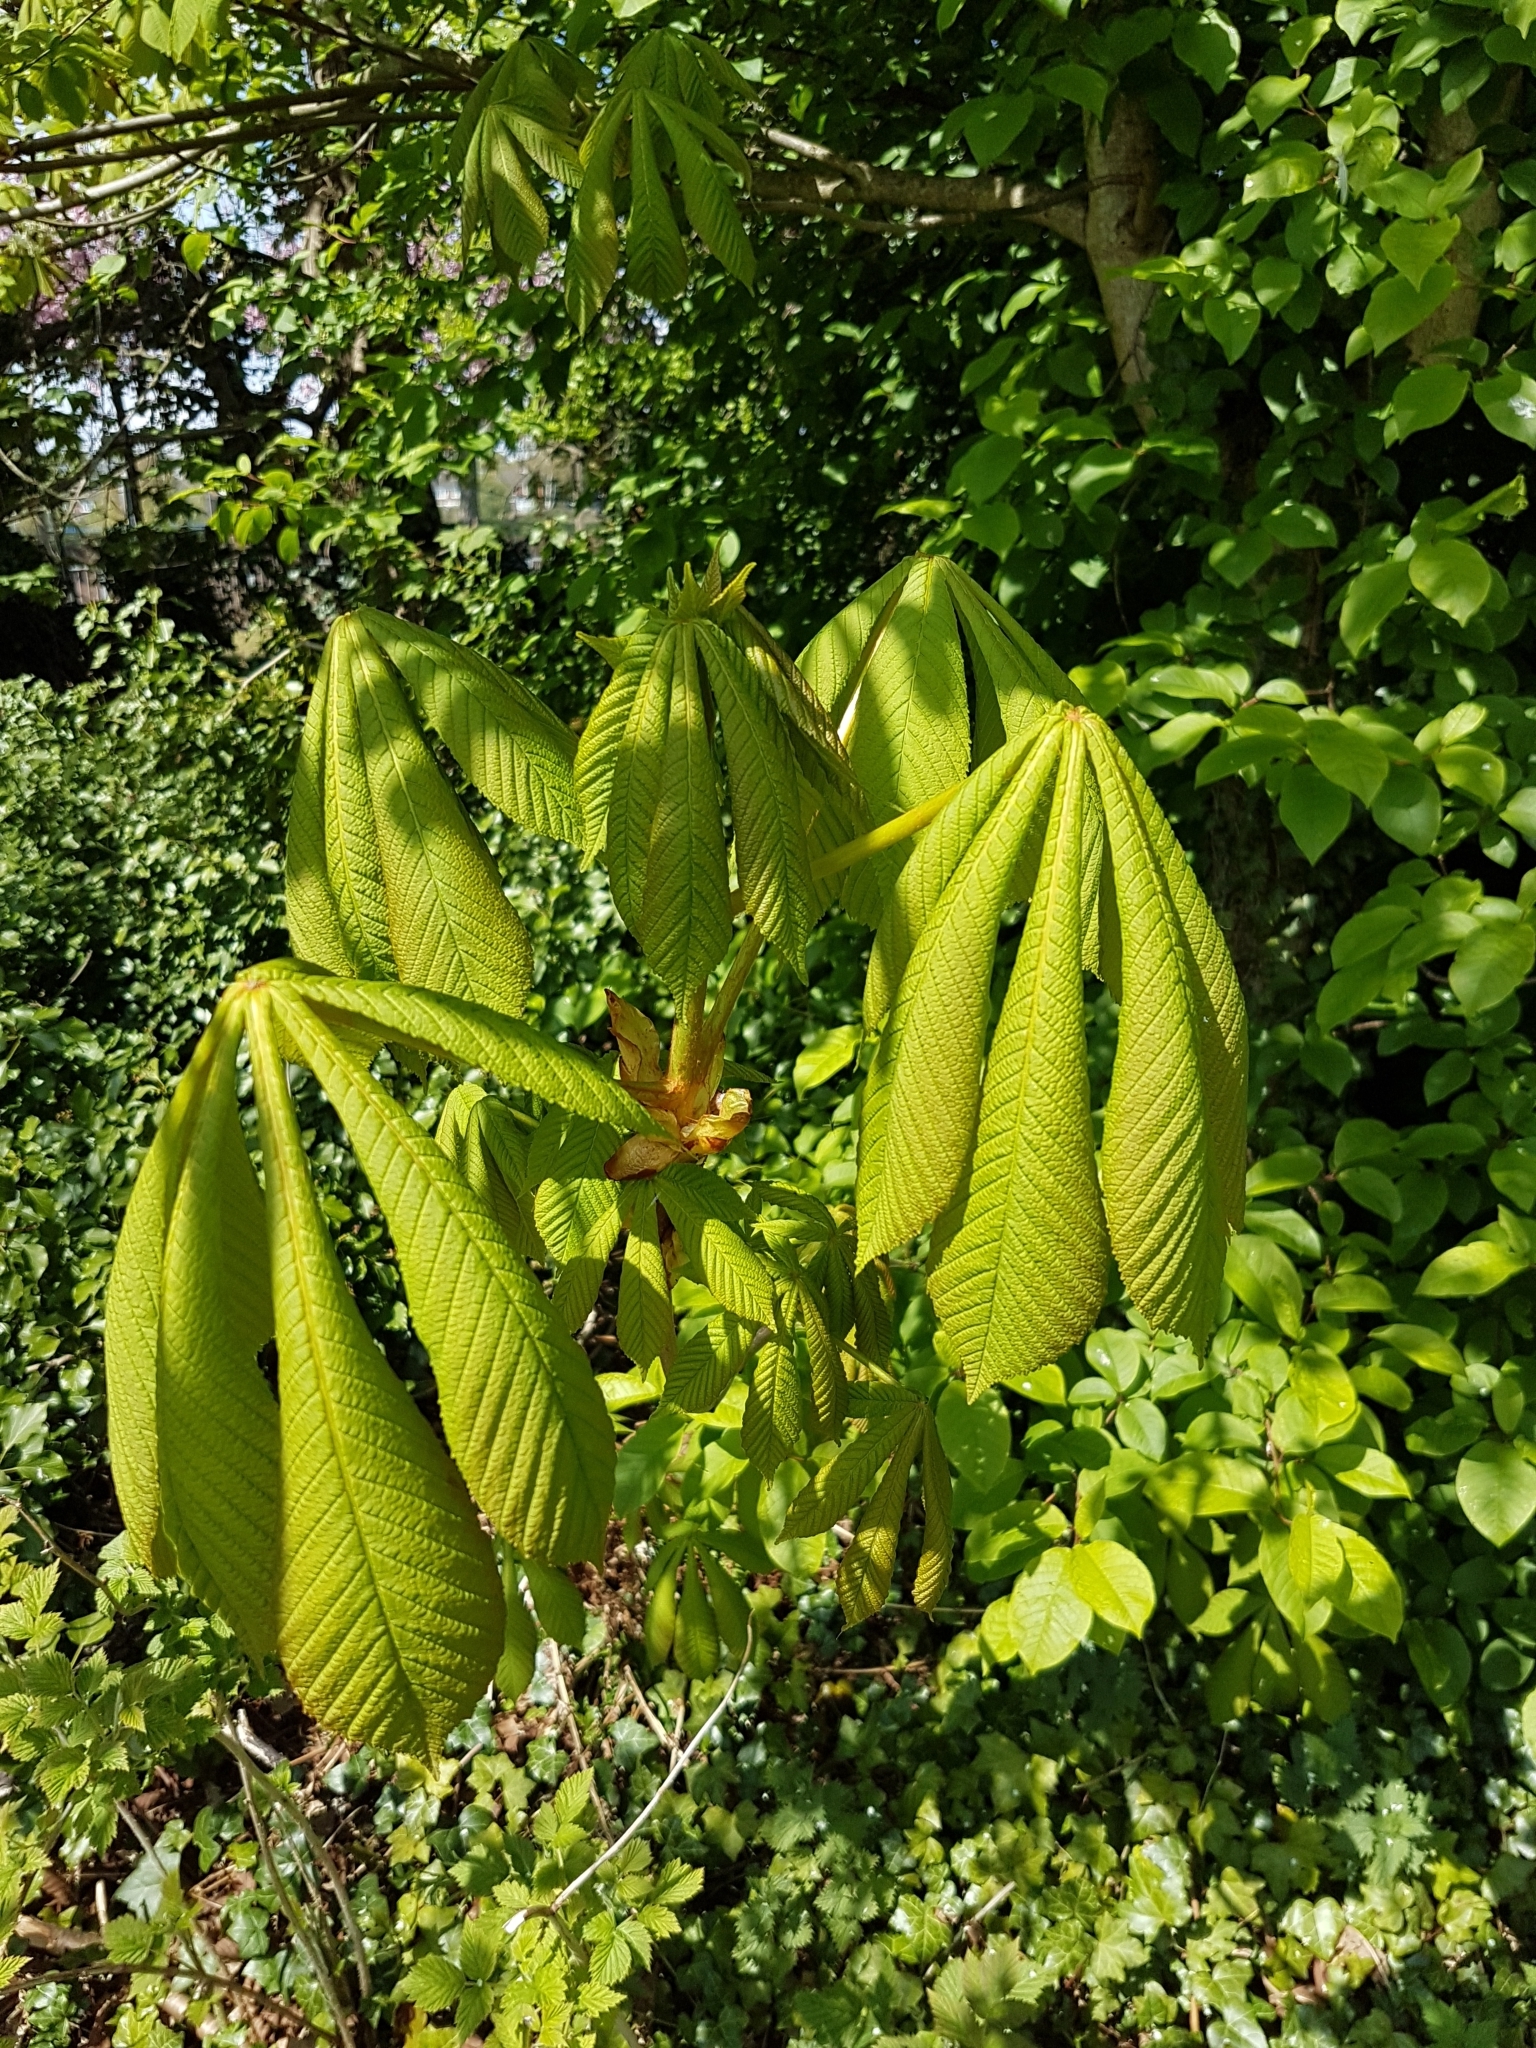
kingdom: Plantae
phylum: Tracheophyta
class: Magnoliopsida
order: Sapindales
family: Sapindaceae
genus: Aesculus
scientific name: Aesculus hippocastanum
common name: Horse-chestnut
